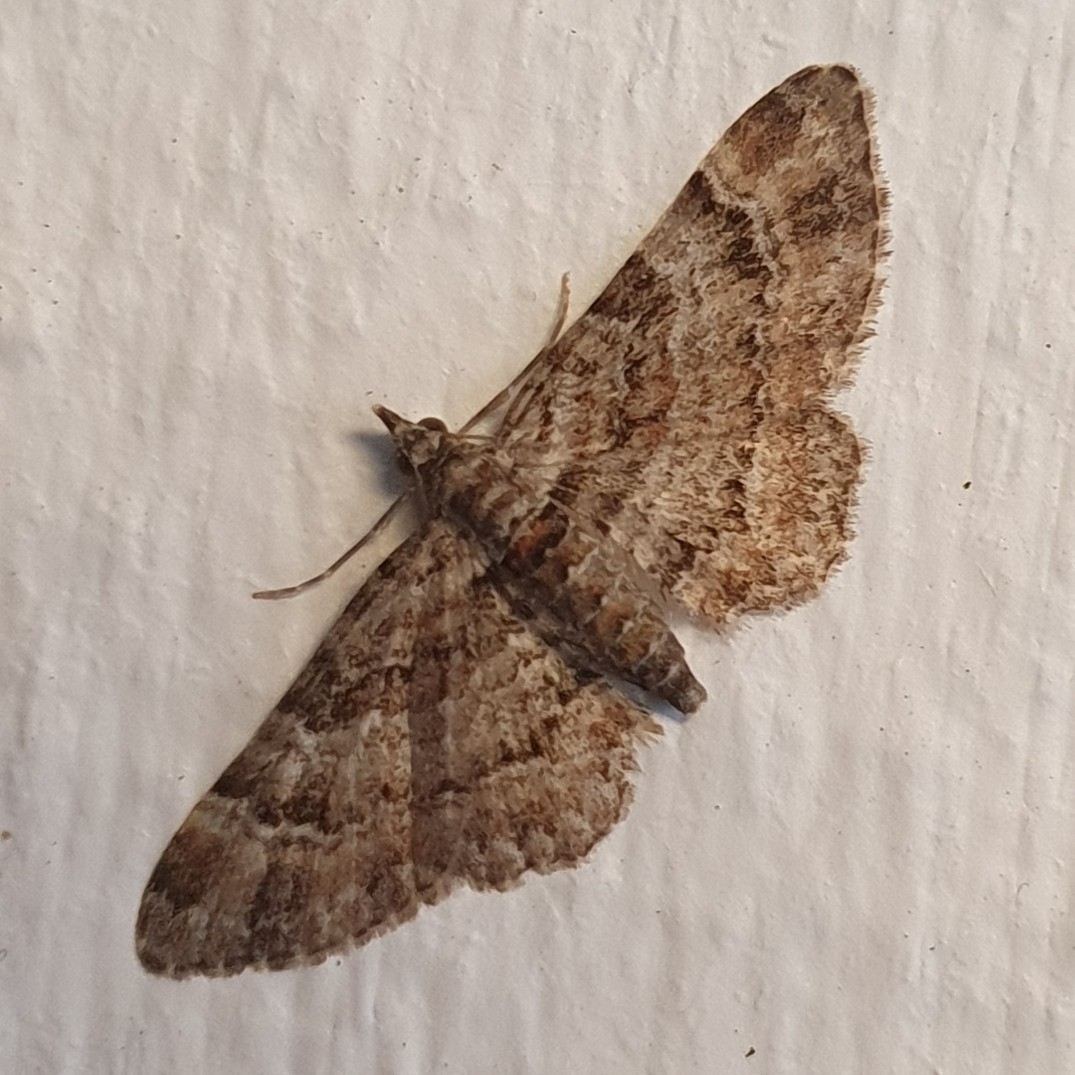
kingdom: Animalia
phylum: Arthropoda
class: Insecta
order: Lepidoptera
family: Geometridae
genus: Gymnoscelis
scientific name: Gymnoscelis rufifasciata
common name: Double-striped pug
